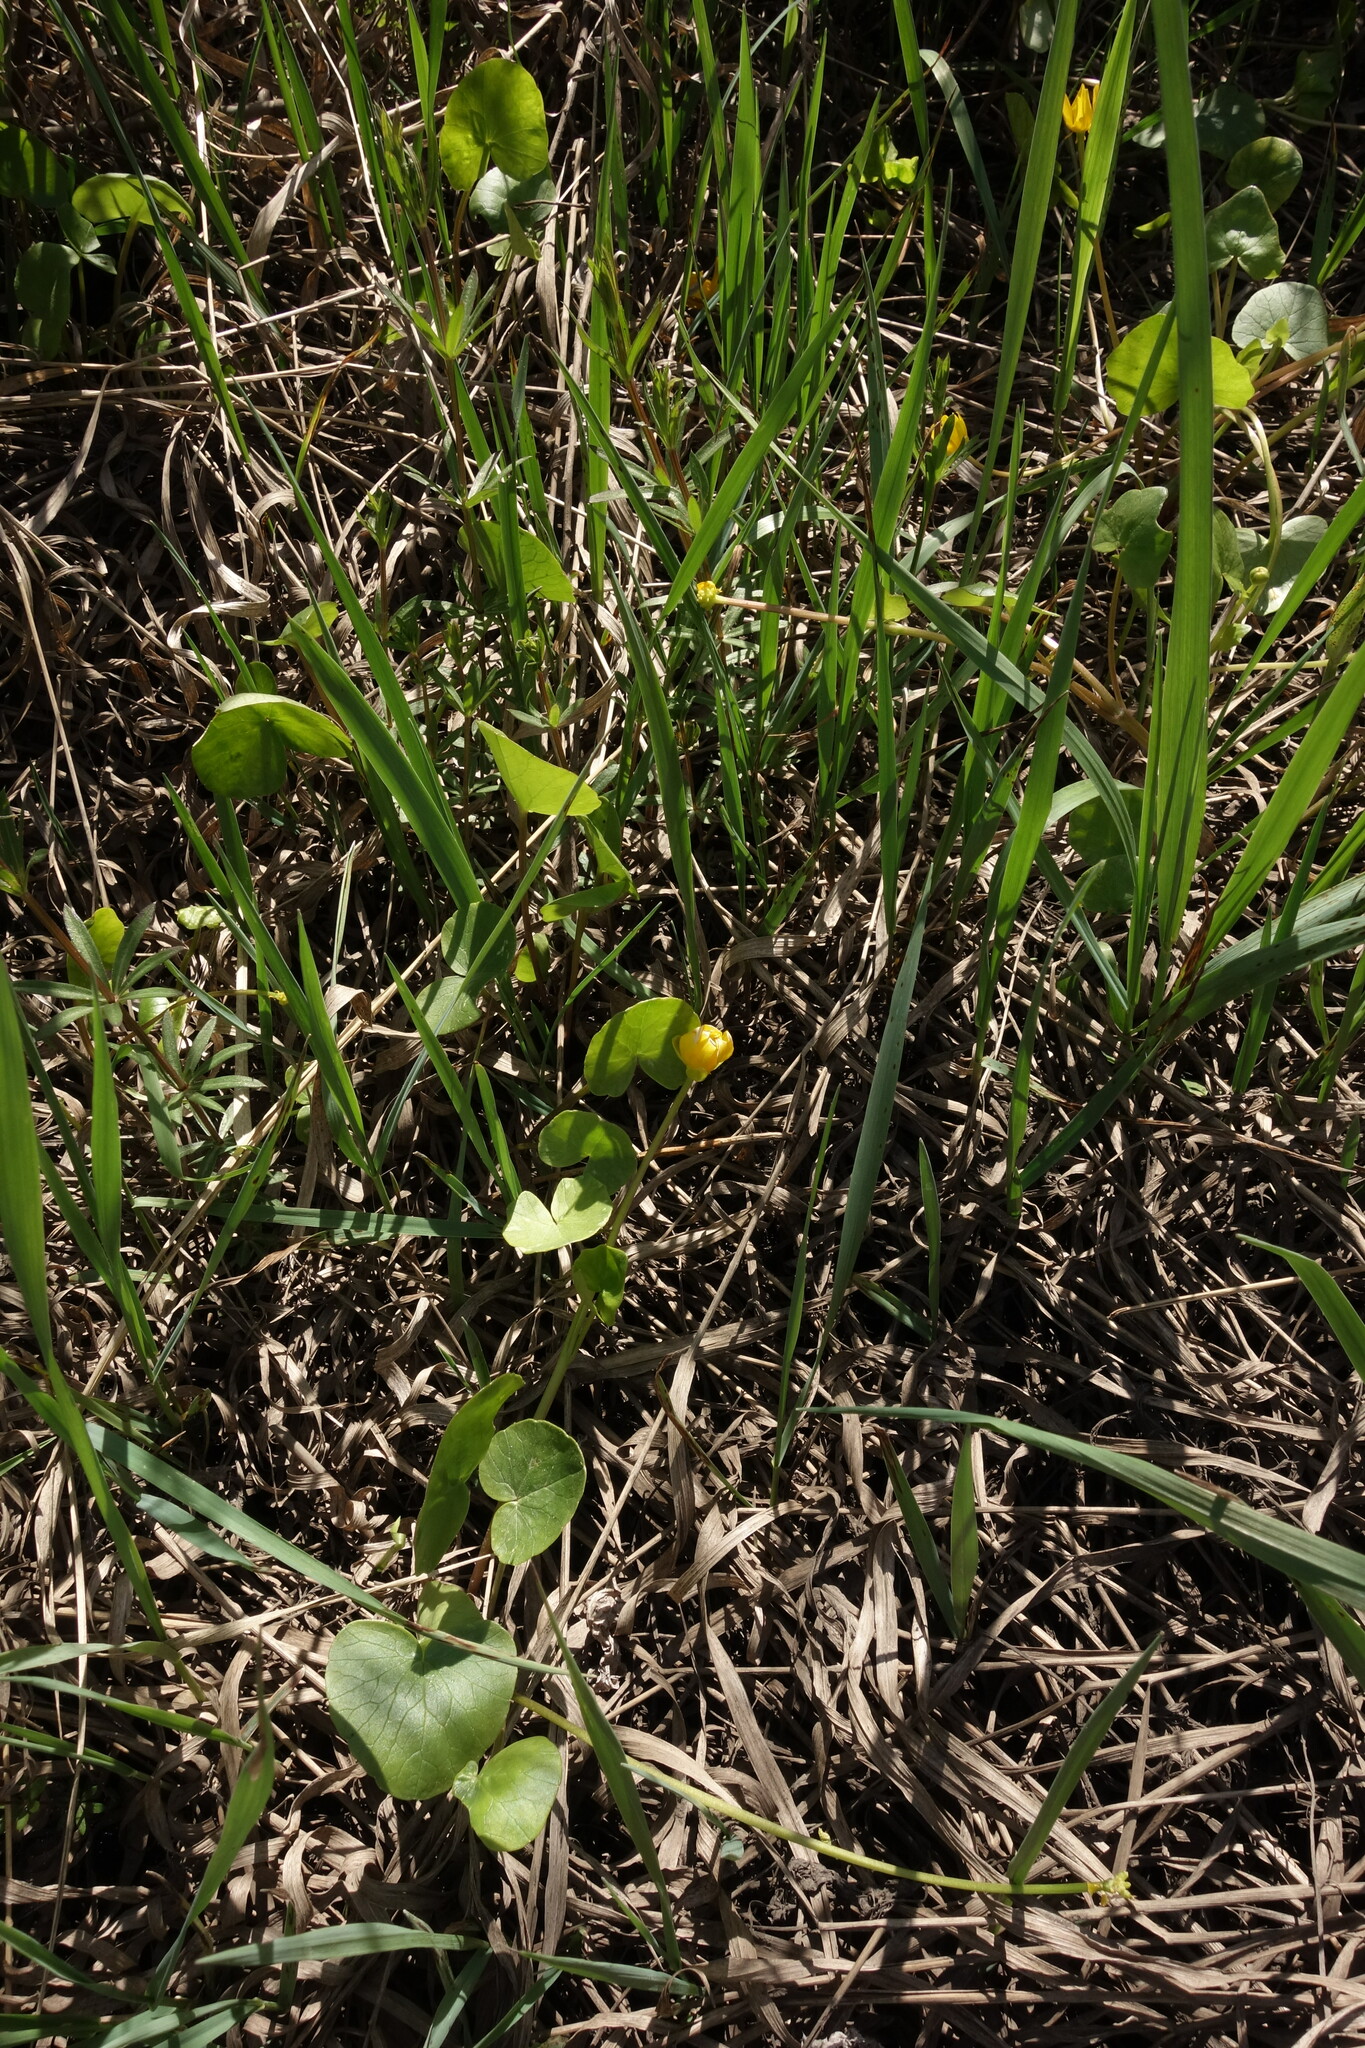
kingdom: Plantae
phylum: Tracheophyta
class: Magnoliopsida
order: Ranunculales
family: Ranunculaceae
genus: Ficaria
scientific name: Ficaria verna
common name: Lesser celandine
